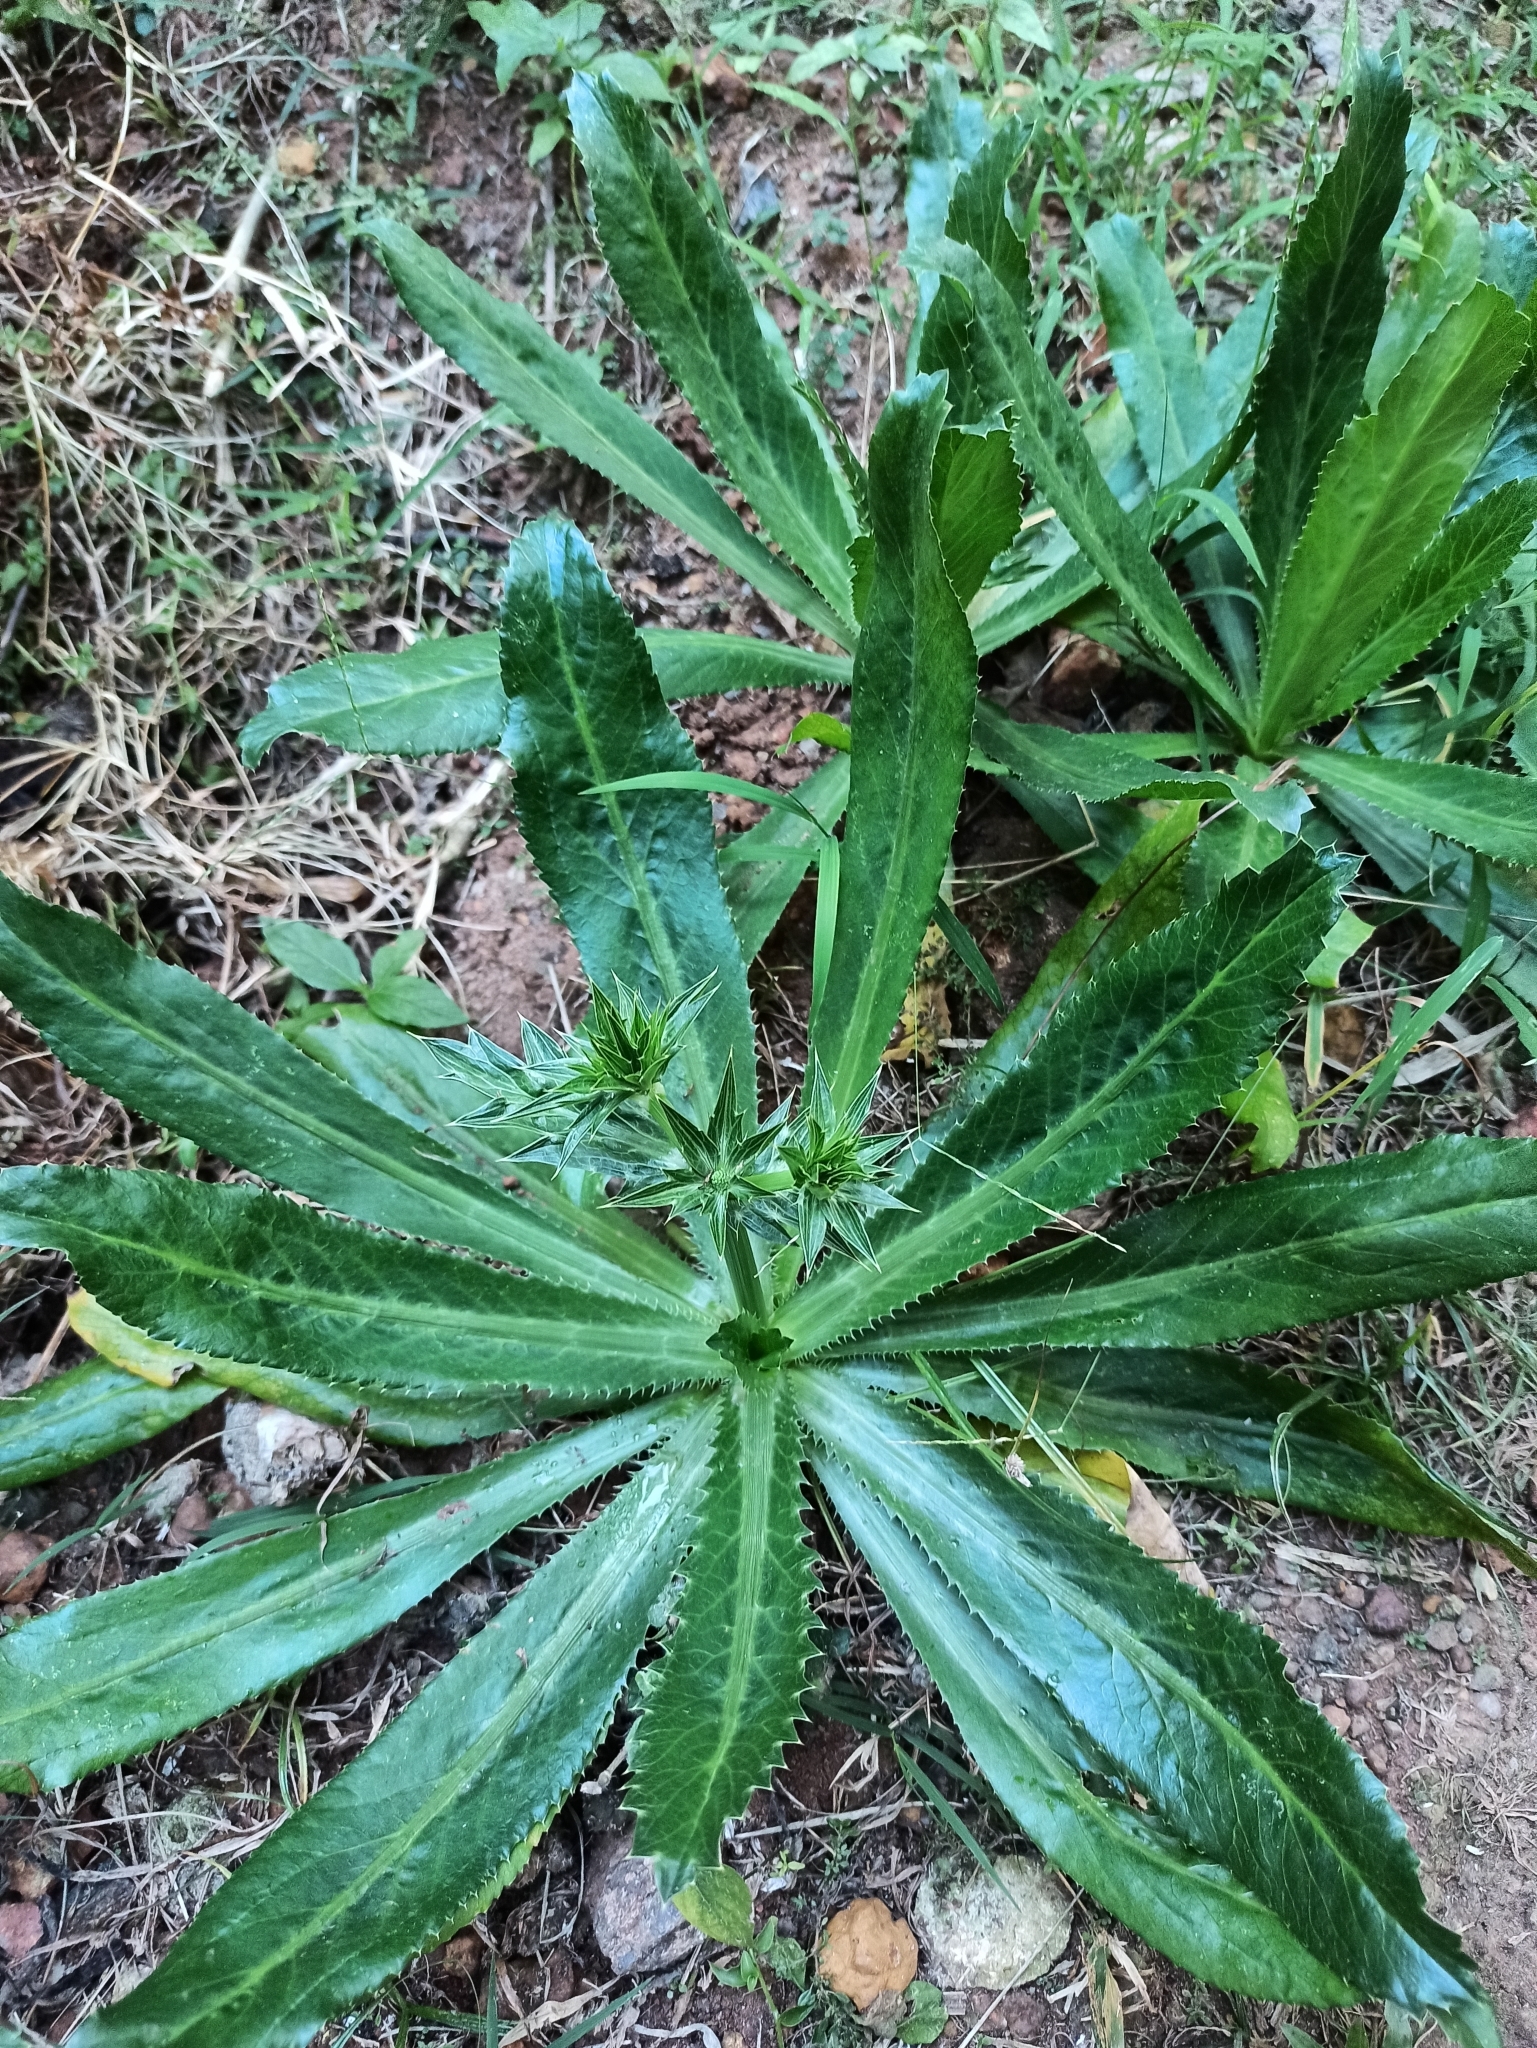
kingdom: Plantae
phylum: Tracheophyta
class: Magnoliopsida
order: Apiales
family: Apiaceae
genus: Eryngium
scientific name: Eryngium foetidum
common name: Fitweed
